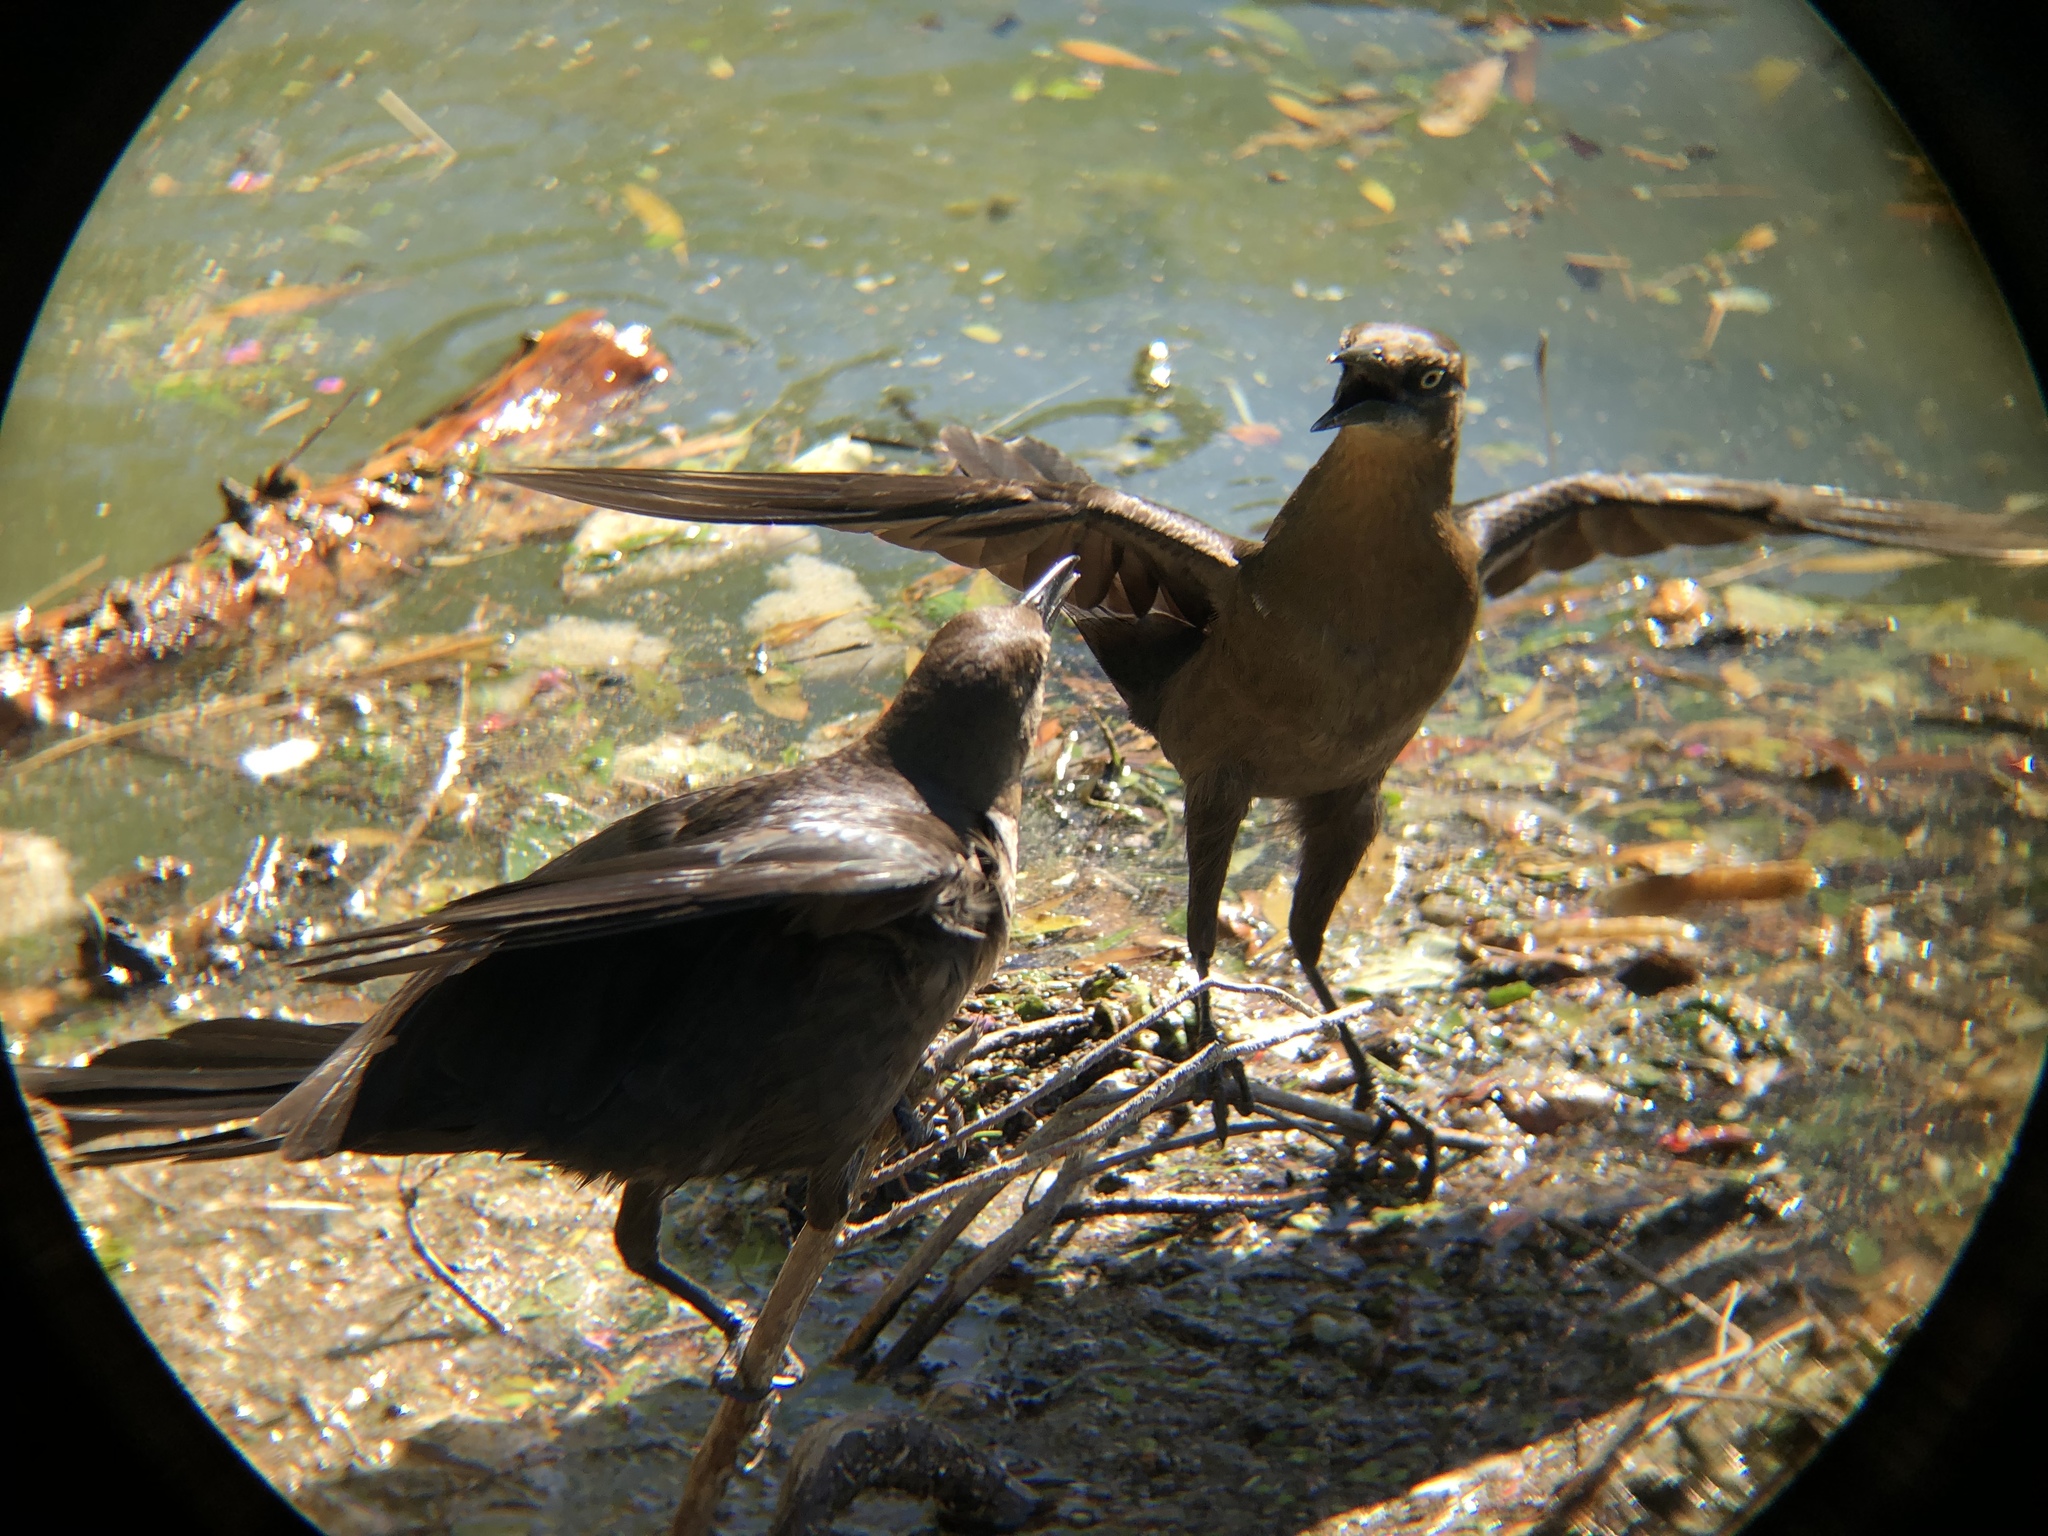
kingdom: Animalia
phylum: Chordata
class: Aves
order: Passeriformes
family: Icteridae
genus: Quiscalus
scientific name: Quiscalus mexicanus
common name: Great-tailed grackle
